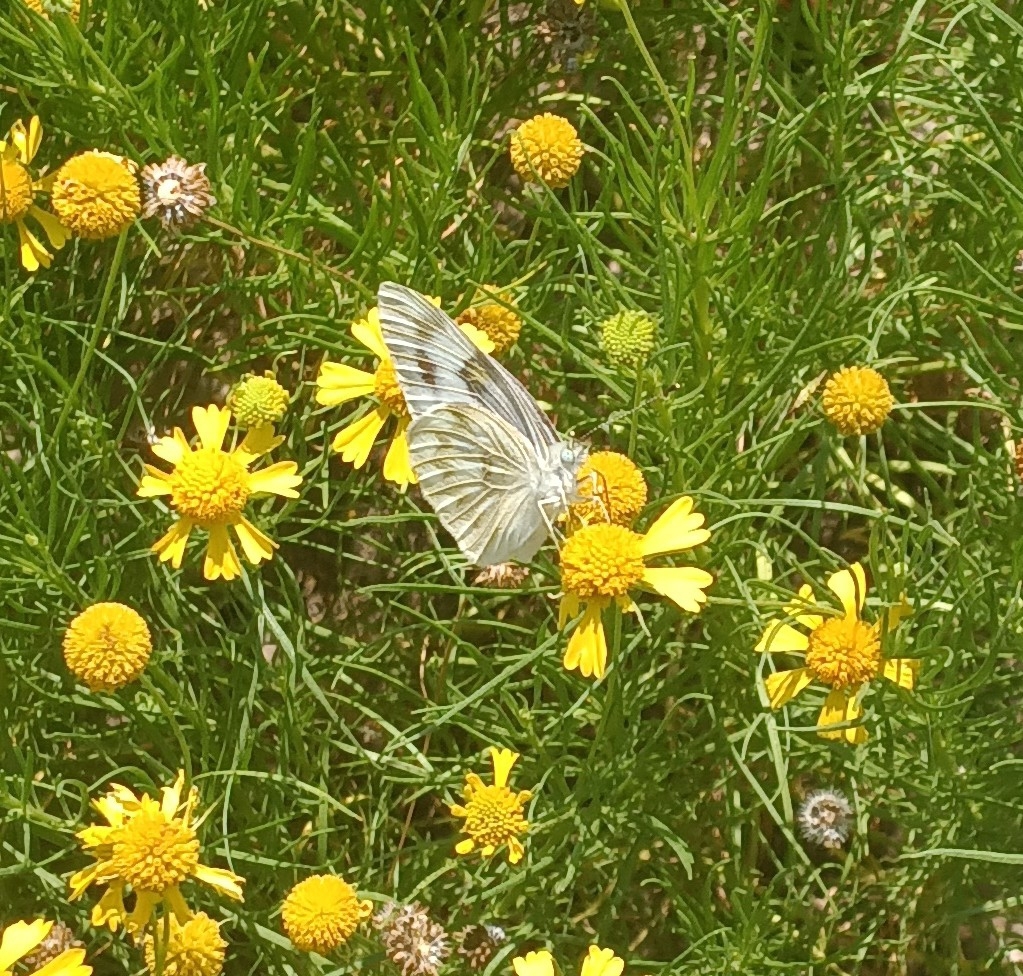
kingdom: Animalia
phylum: Arthropoda
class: Insecta
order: Lepidoptera
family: Pieridae
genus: Pontia
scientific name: Pontia protodice
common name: Checkered white
